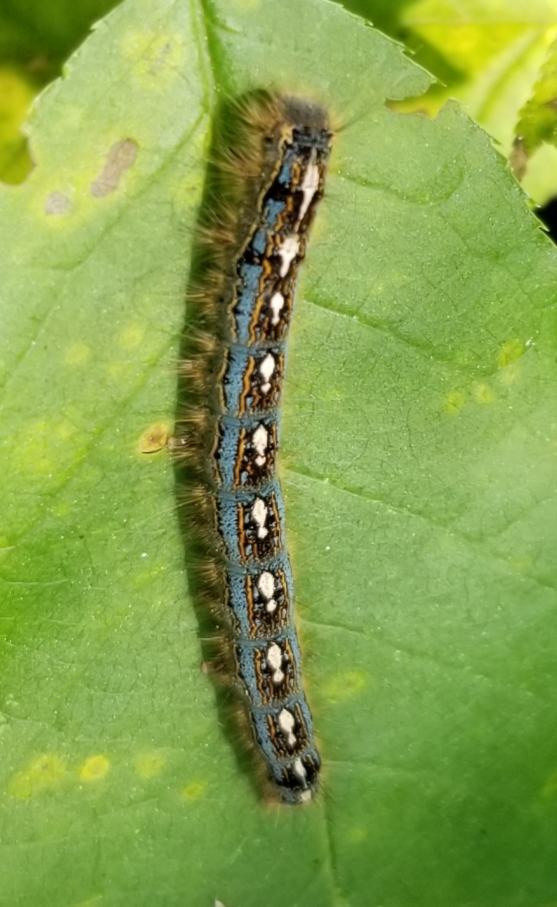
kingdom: Animalia
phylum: Arthropoda
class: Insecta
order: Lepidoptera
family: Lasiocampidae
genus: Malacosoma
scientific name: Malacosoma disstria
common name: Forest tent caterpillar
